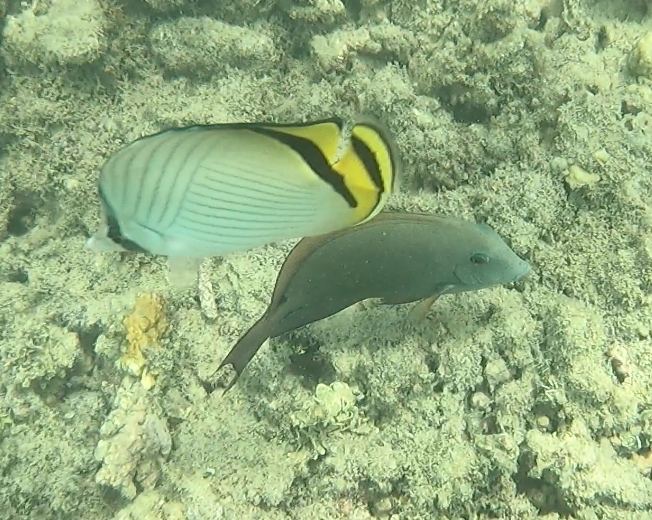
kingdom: Animalia
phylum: Chordata
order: Perciformes
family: Chaetodontidae
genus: Chaetodon
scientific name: Chaetodon vagabundus
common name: Vagabond butterflyfish
